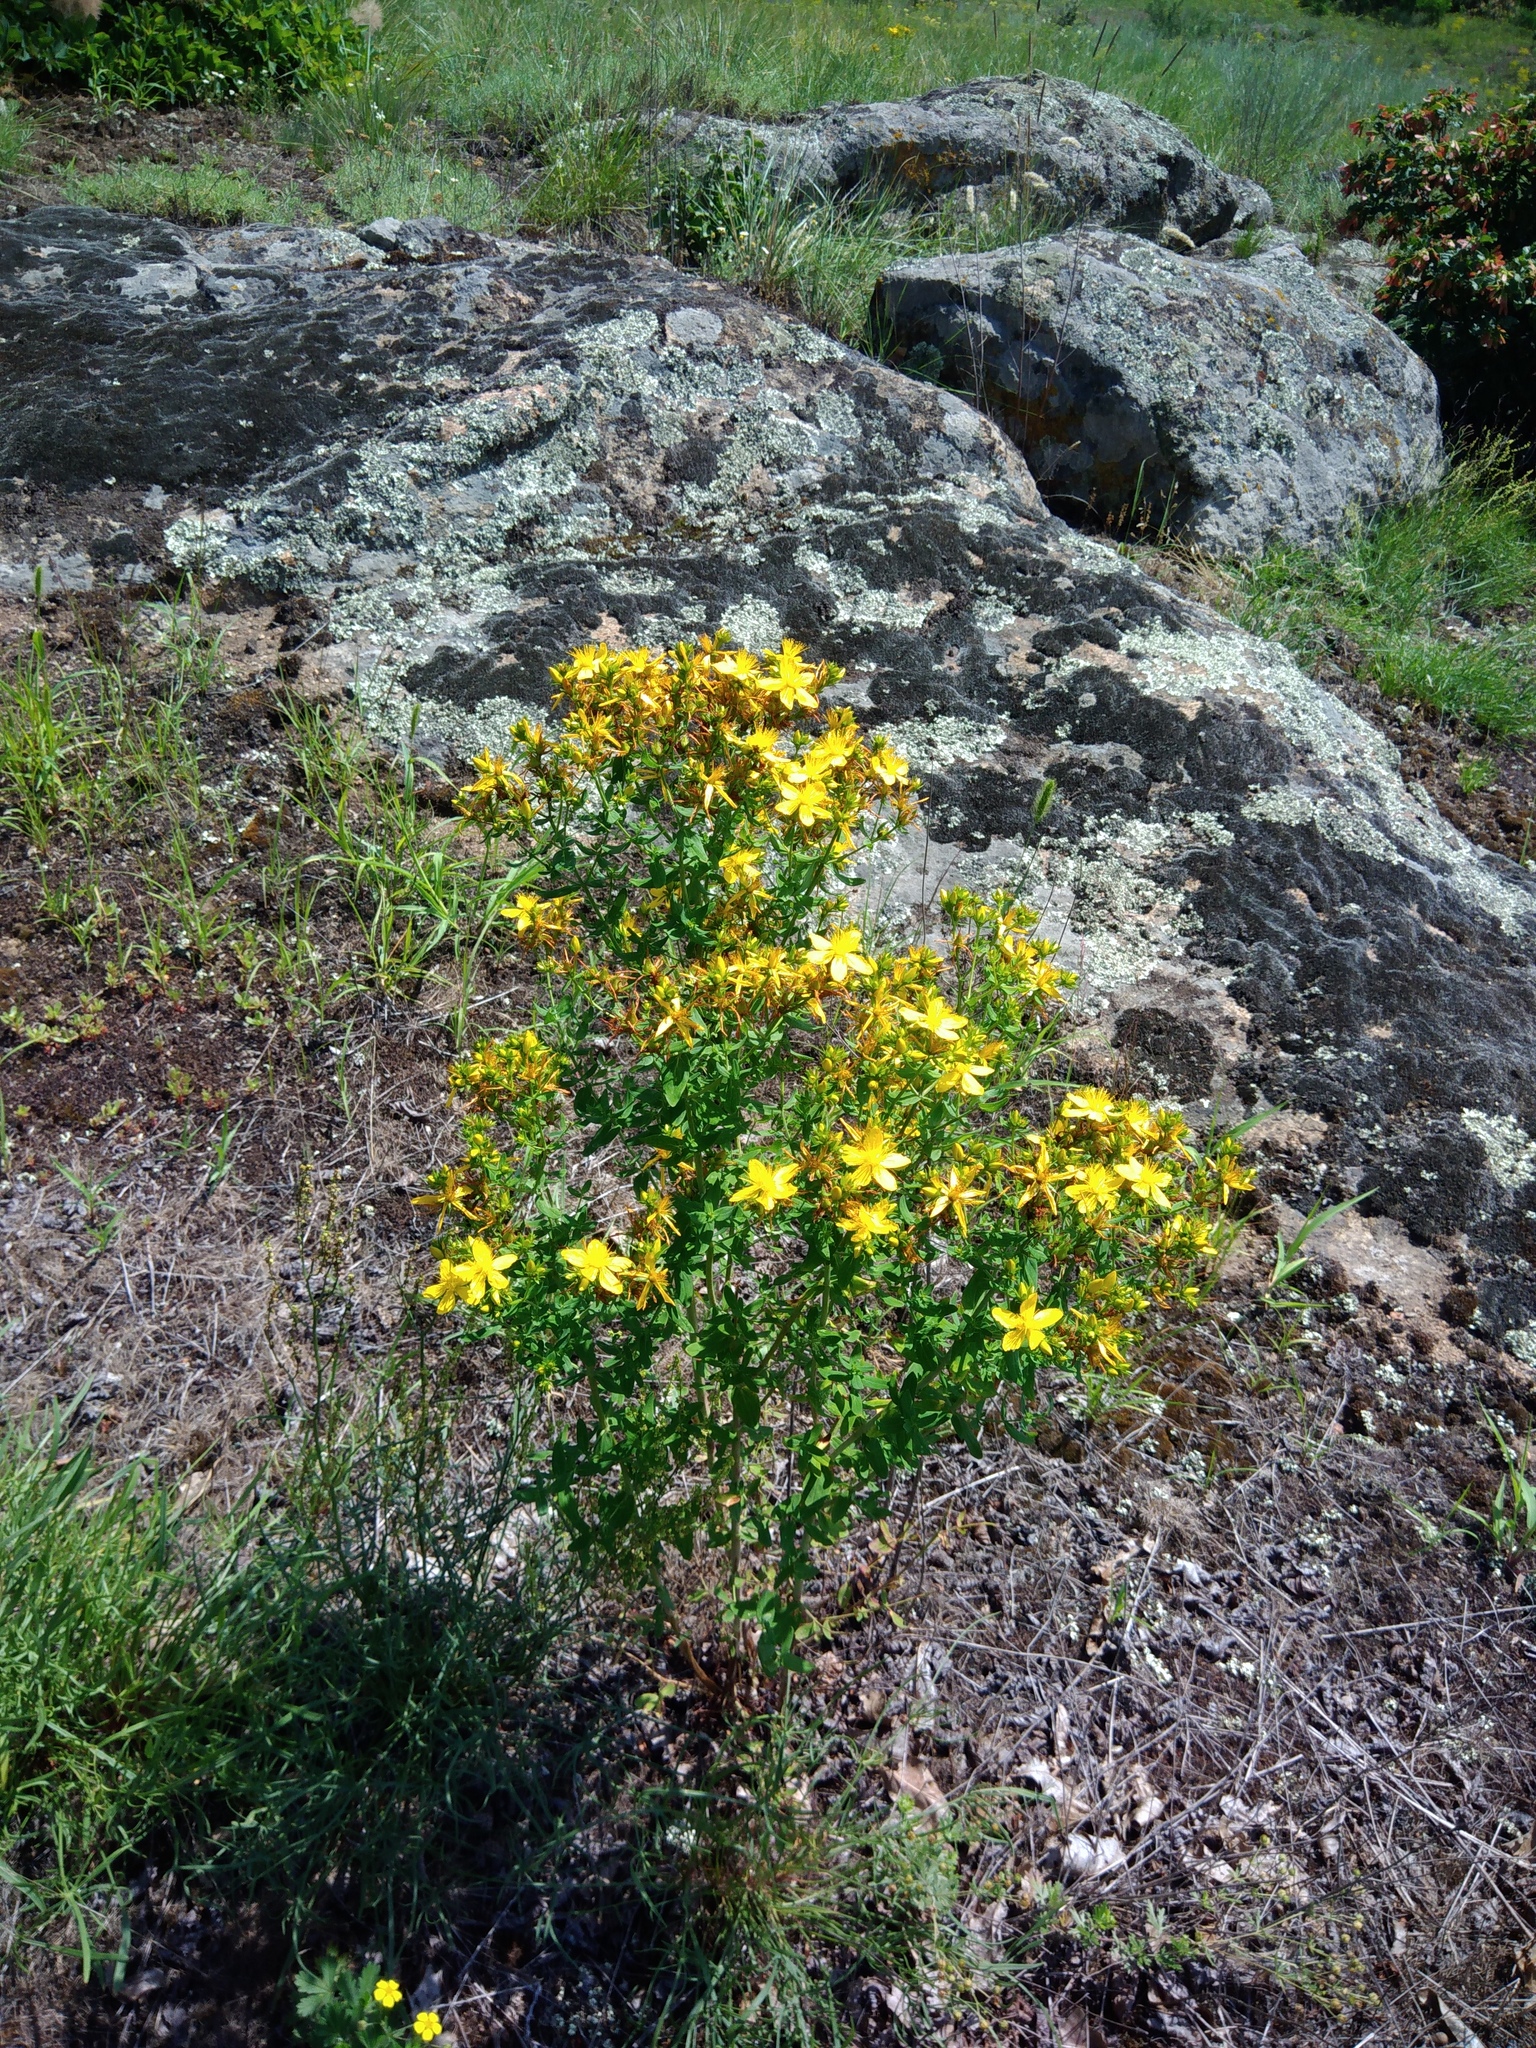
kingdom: Plantae
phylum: Tracheophyta
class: Magnoliopsida
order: Malpighiales
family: Hypericaceae
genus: Hypericum
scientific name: Hypericum perforatum
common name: Common st. johnswort
